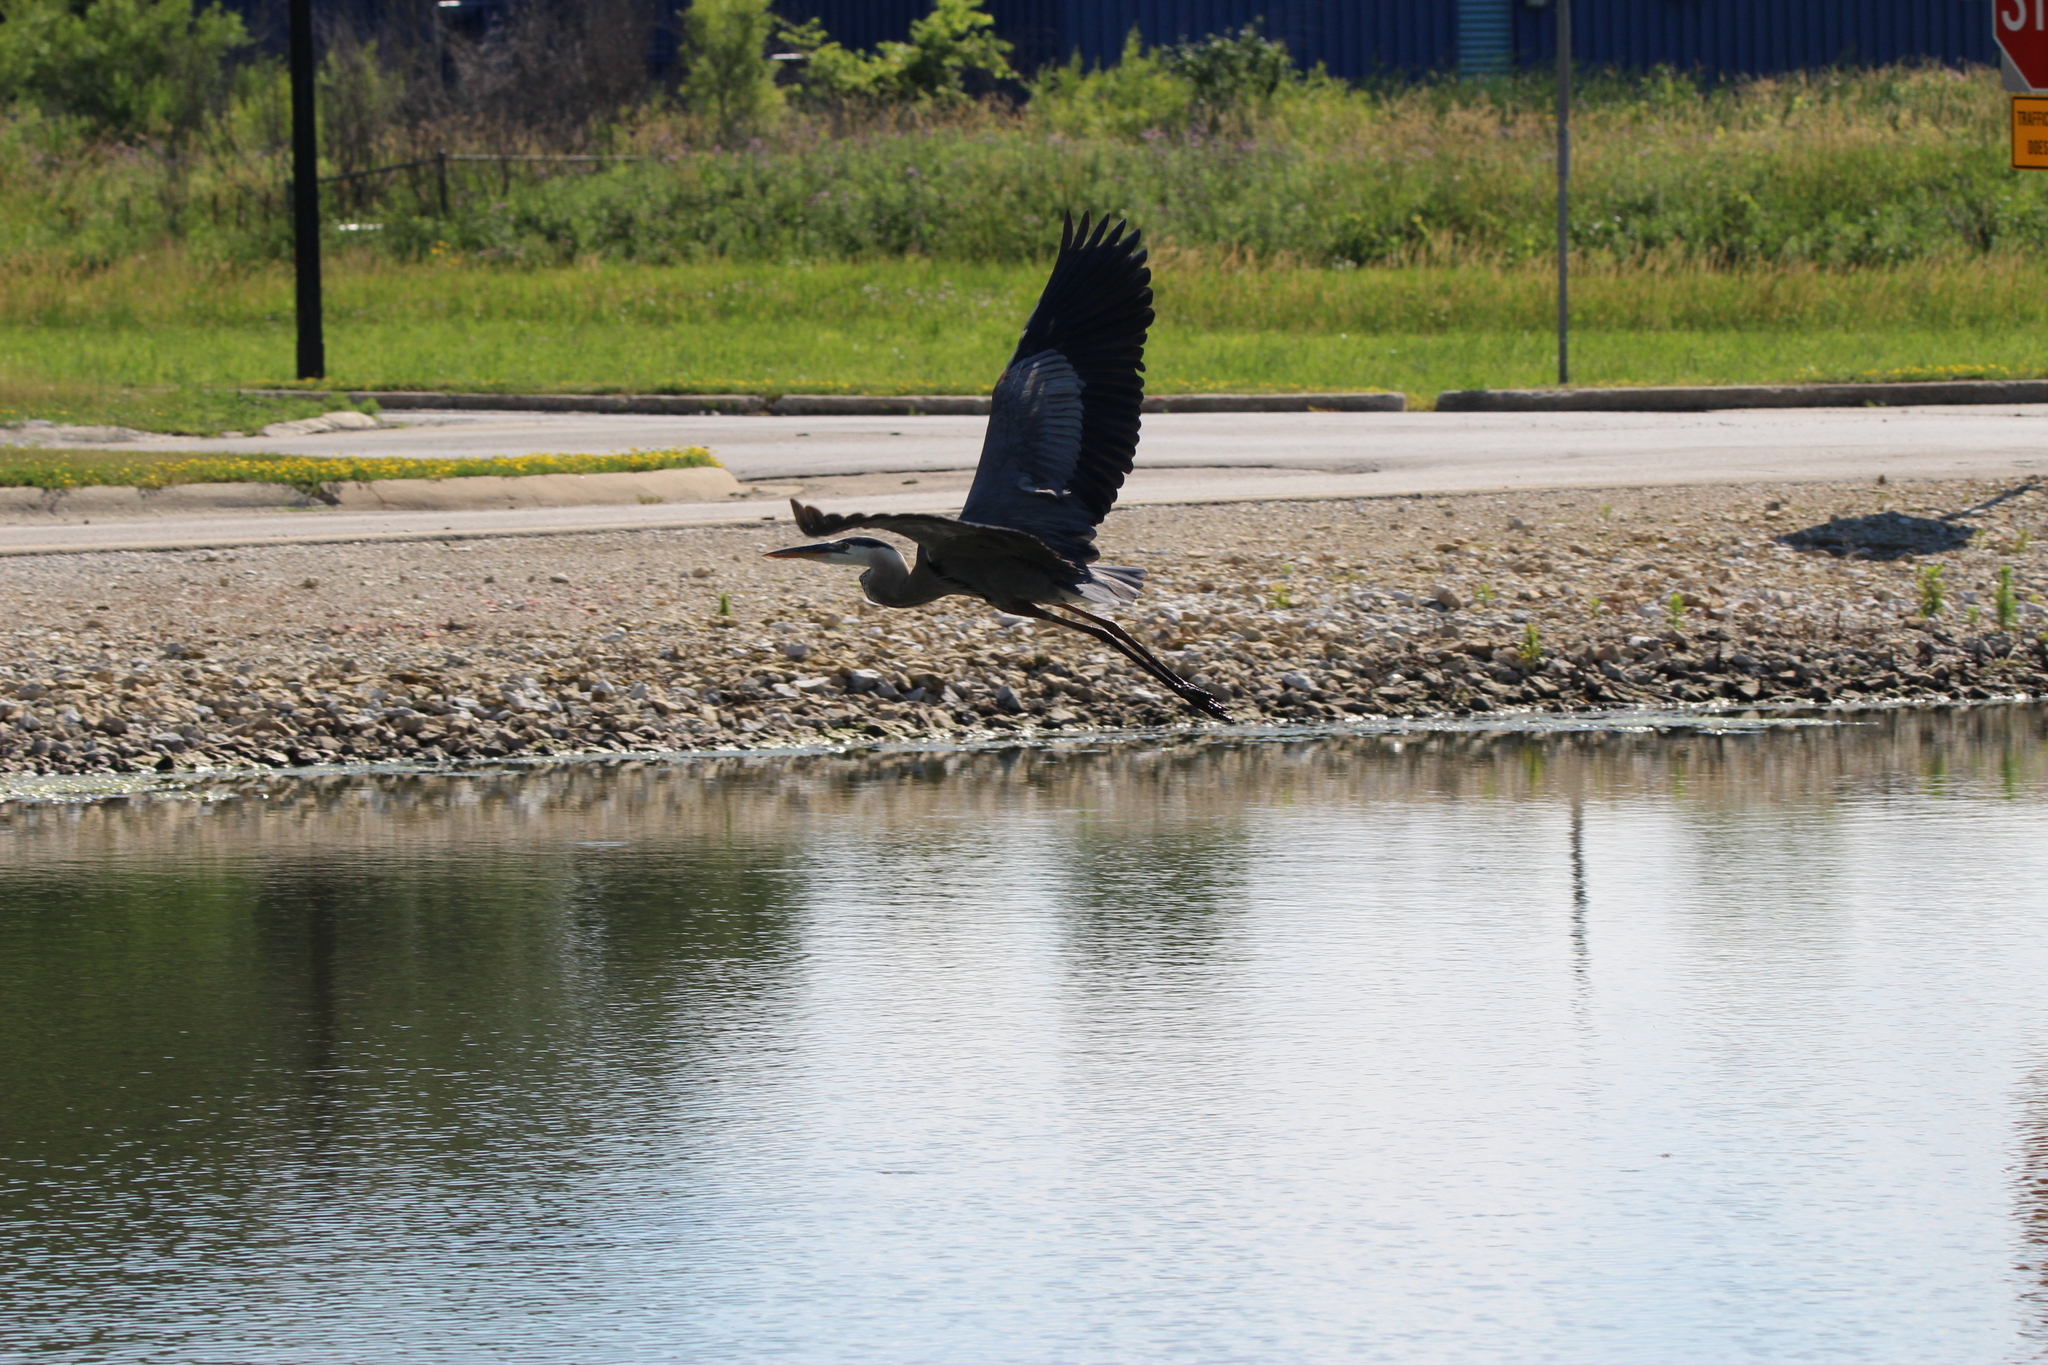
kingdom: Animalia
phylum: Chordata
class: Aves
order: Pelecaniformes
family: Ardeidae
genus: Ardea
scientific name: Ardea herodias
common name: Great blue heron
